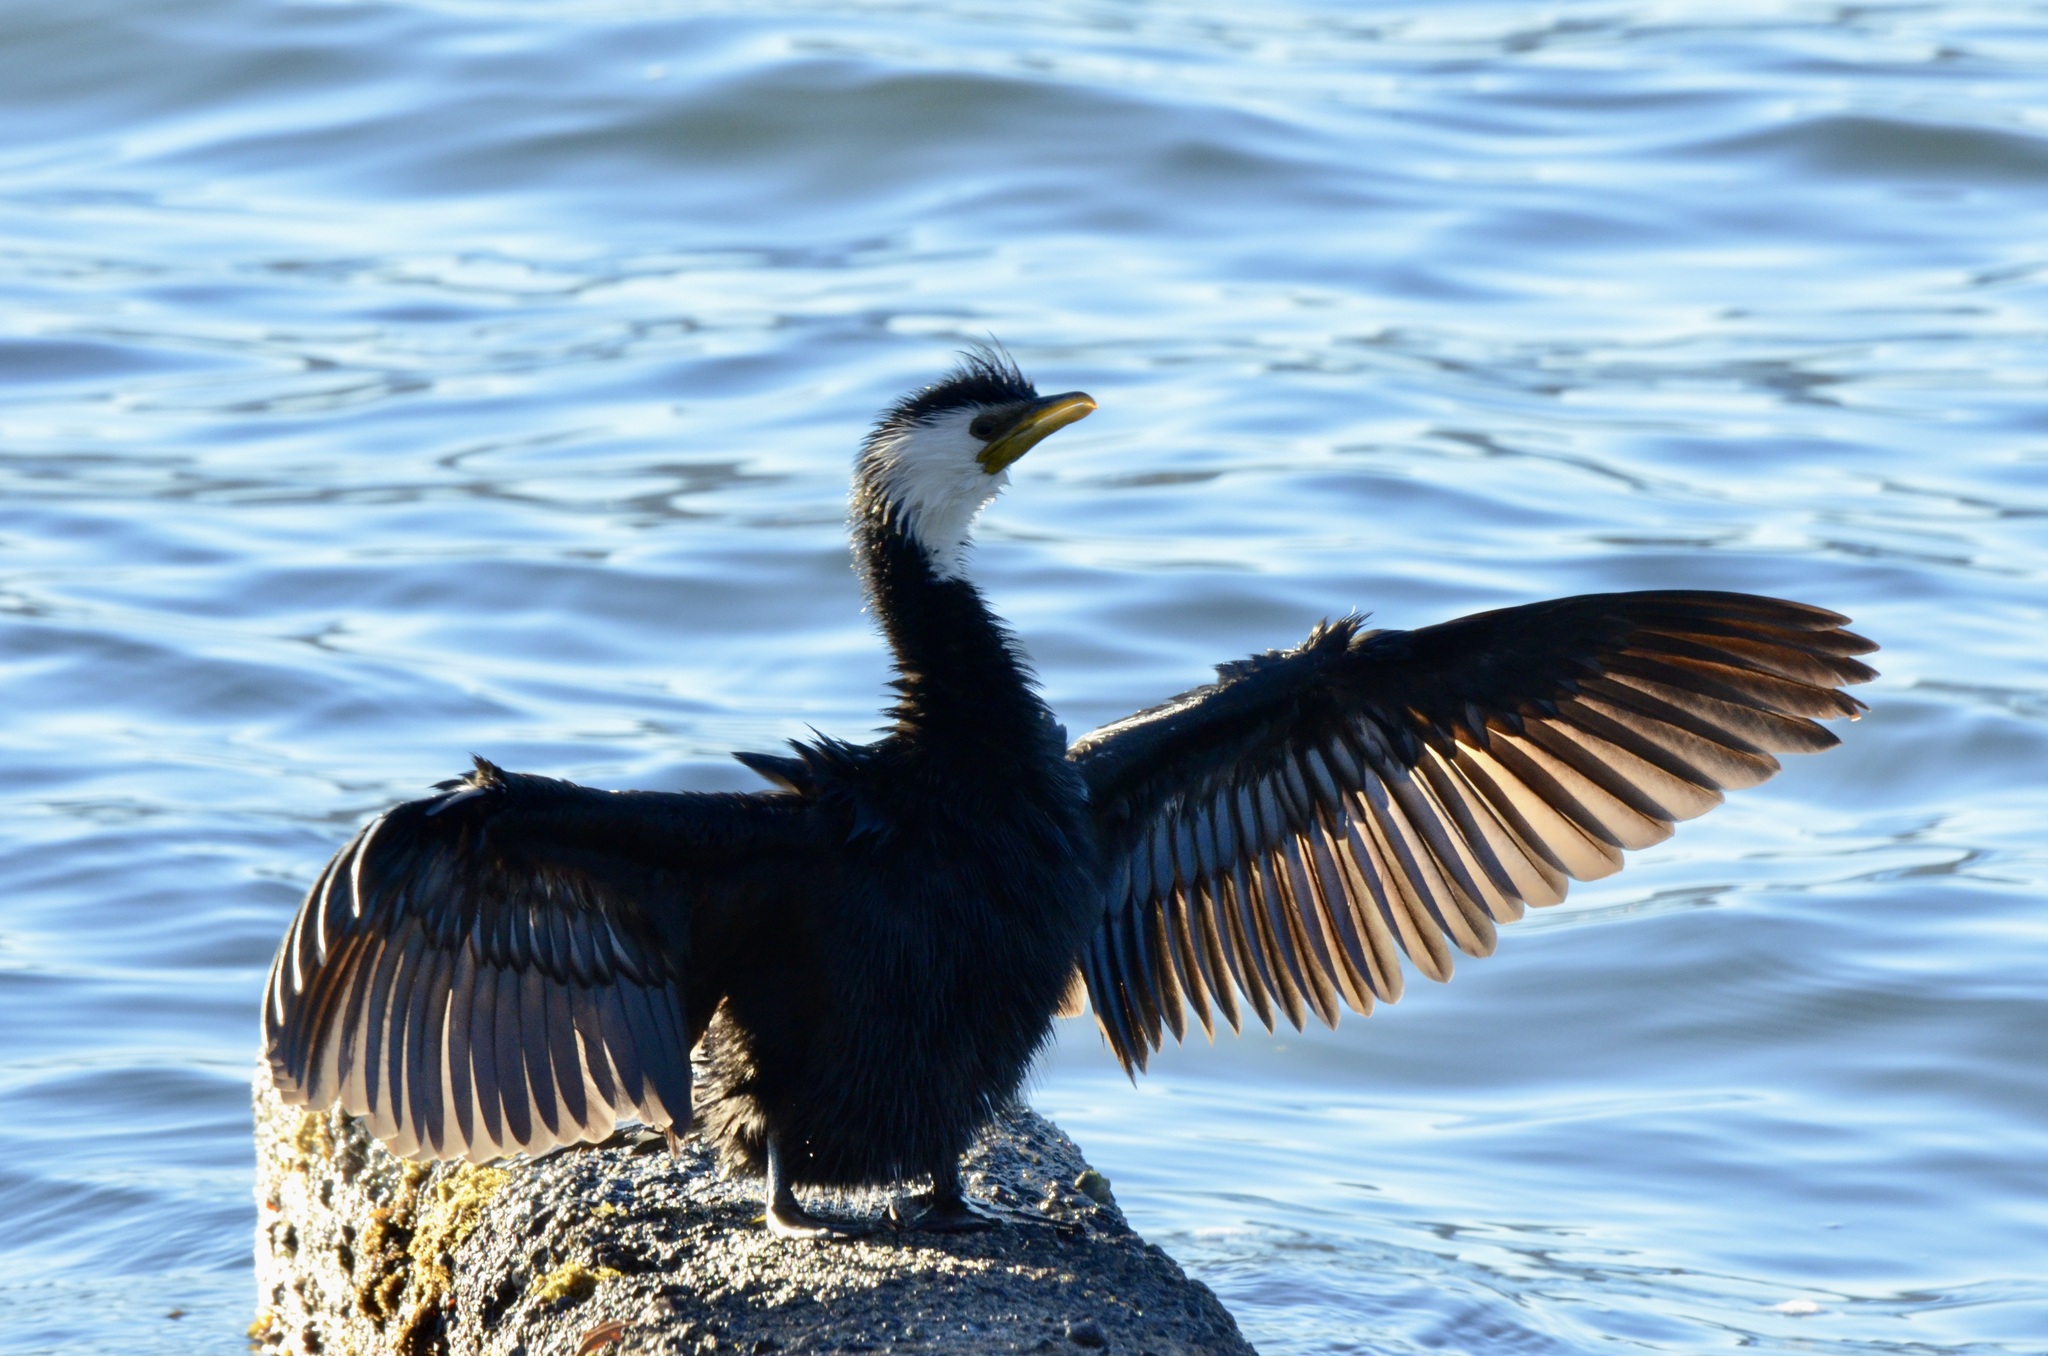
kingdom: Animalia
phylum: Chordata
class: Aves
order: Suliformes
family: Phalacrocoracidae
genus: Microcarbo
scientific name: Microcarbo melanoleucos
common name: Little pied cormorant
